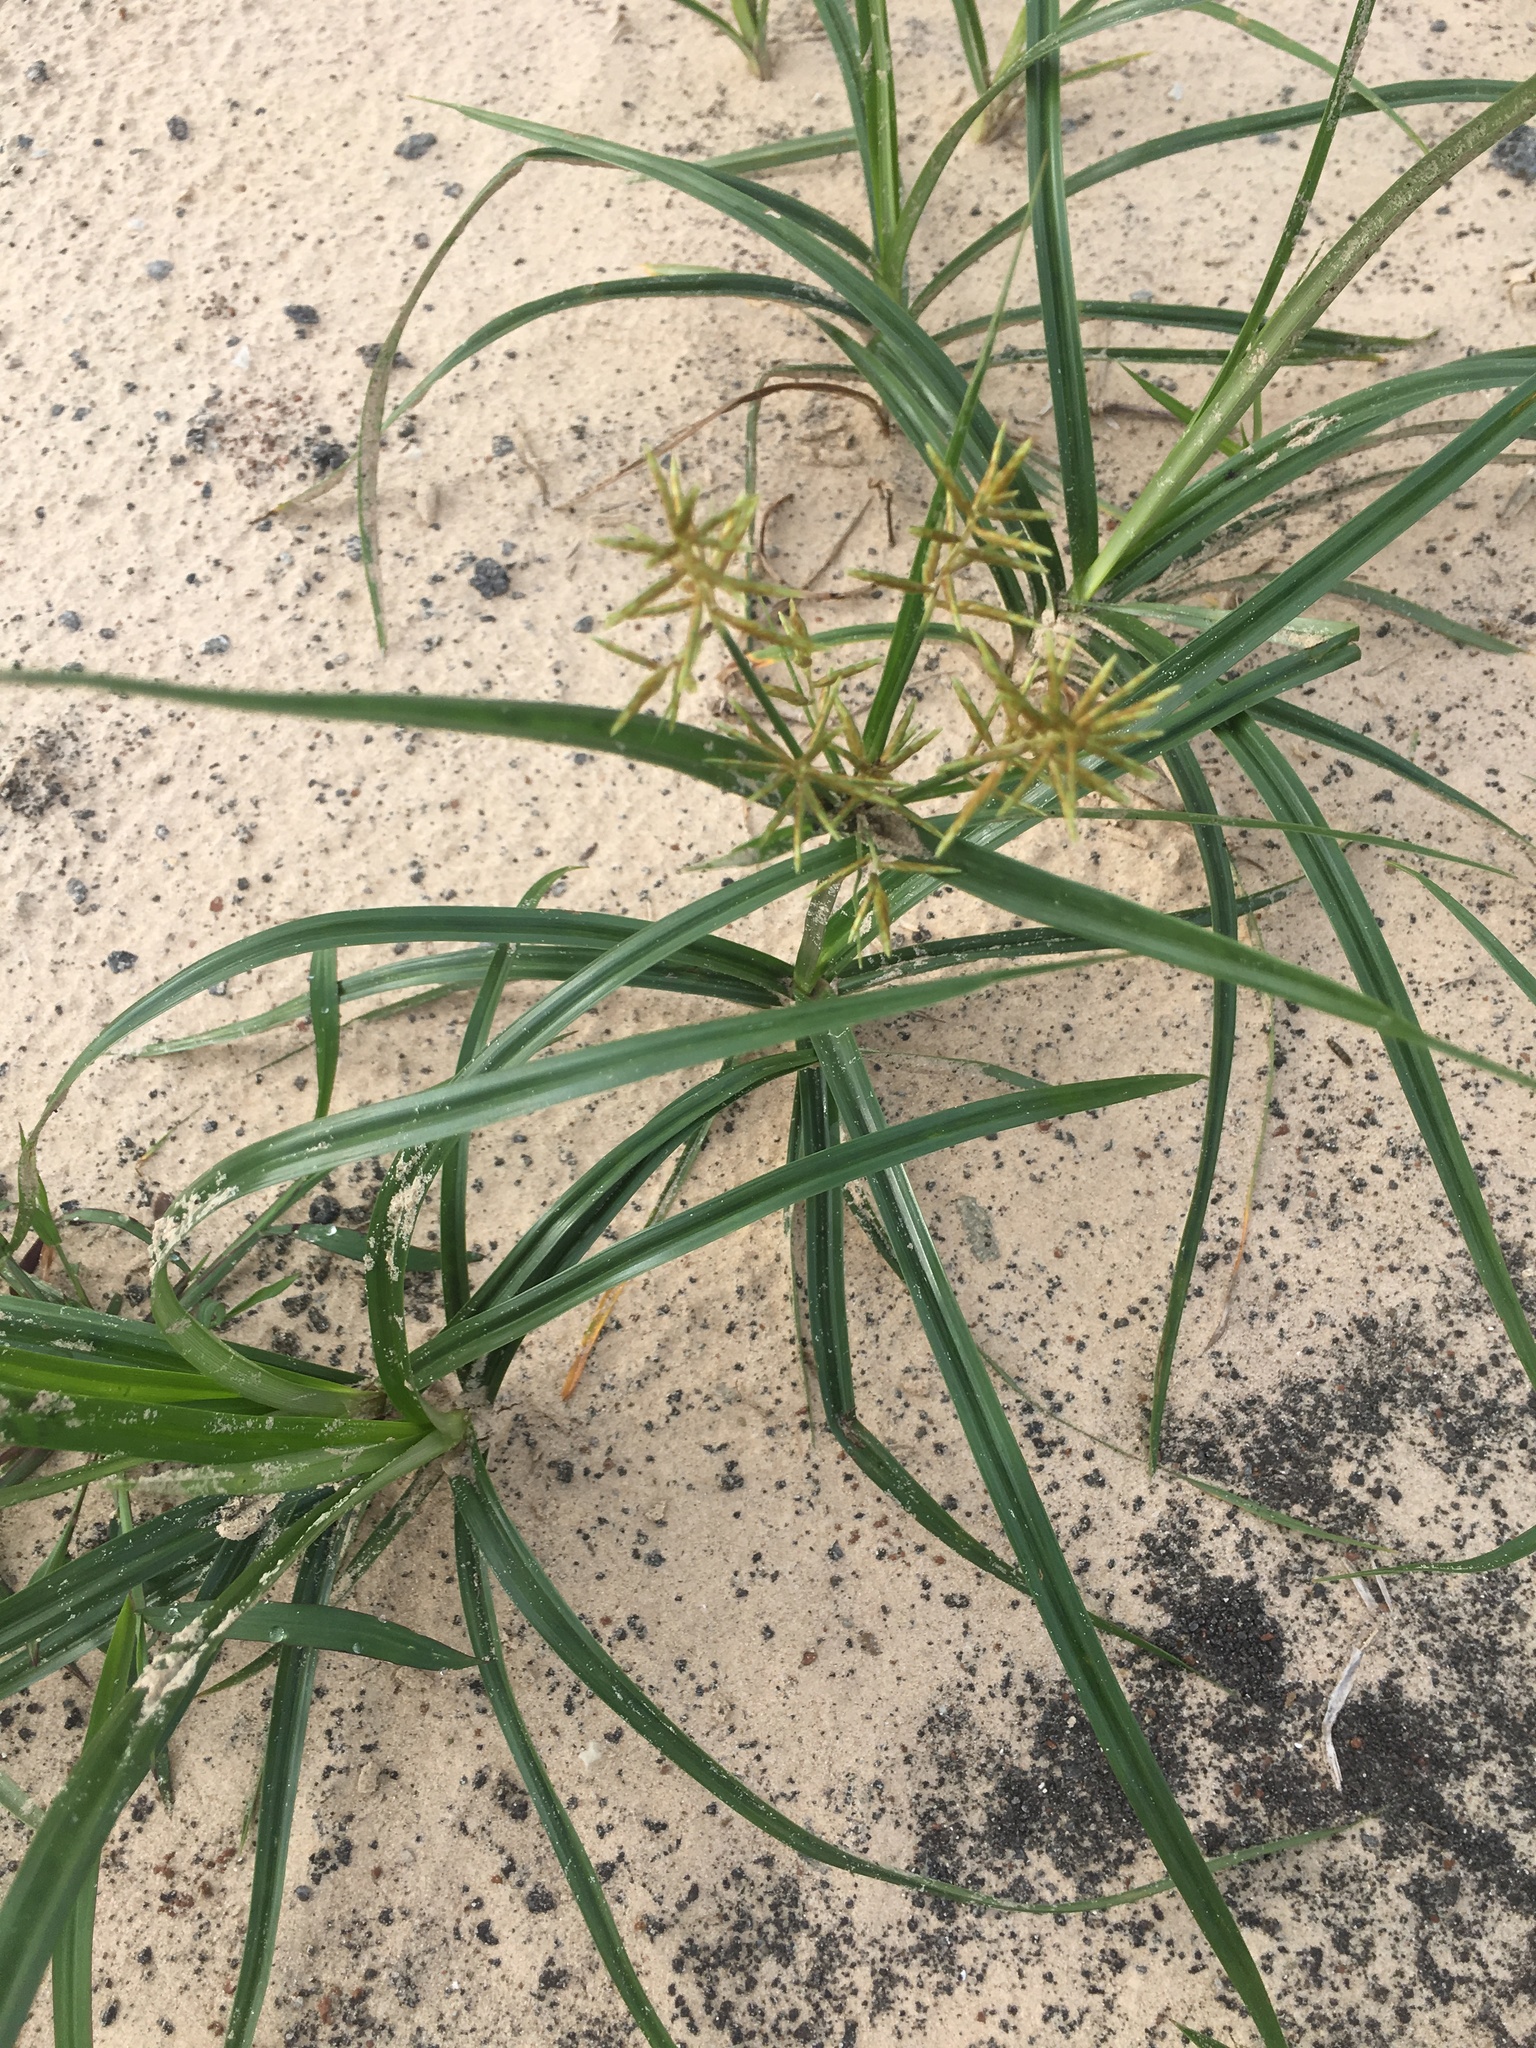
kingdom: Plantae
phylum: Tracheophyta
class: Liliopsida
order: Poales
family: Cyperaceae
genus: Cyperus
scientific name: Cyperus esculentus
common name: Yellow nutsedge
